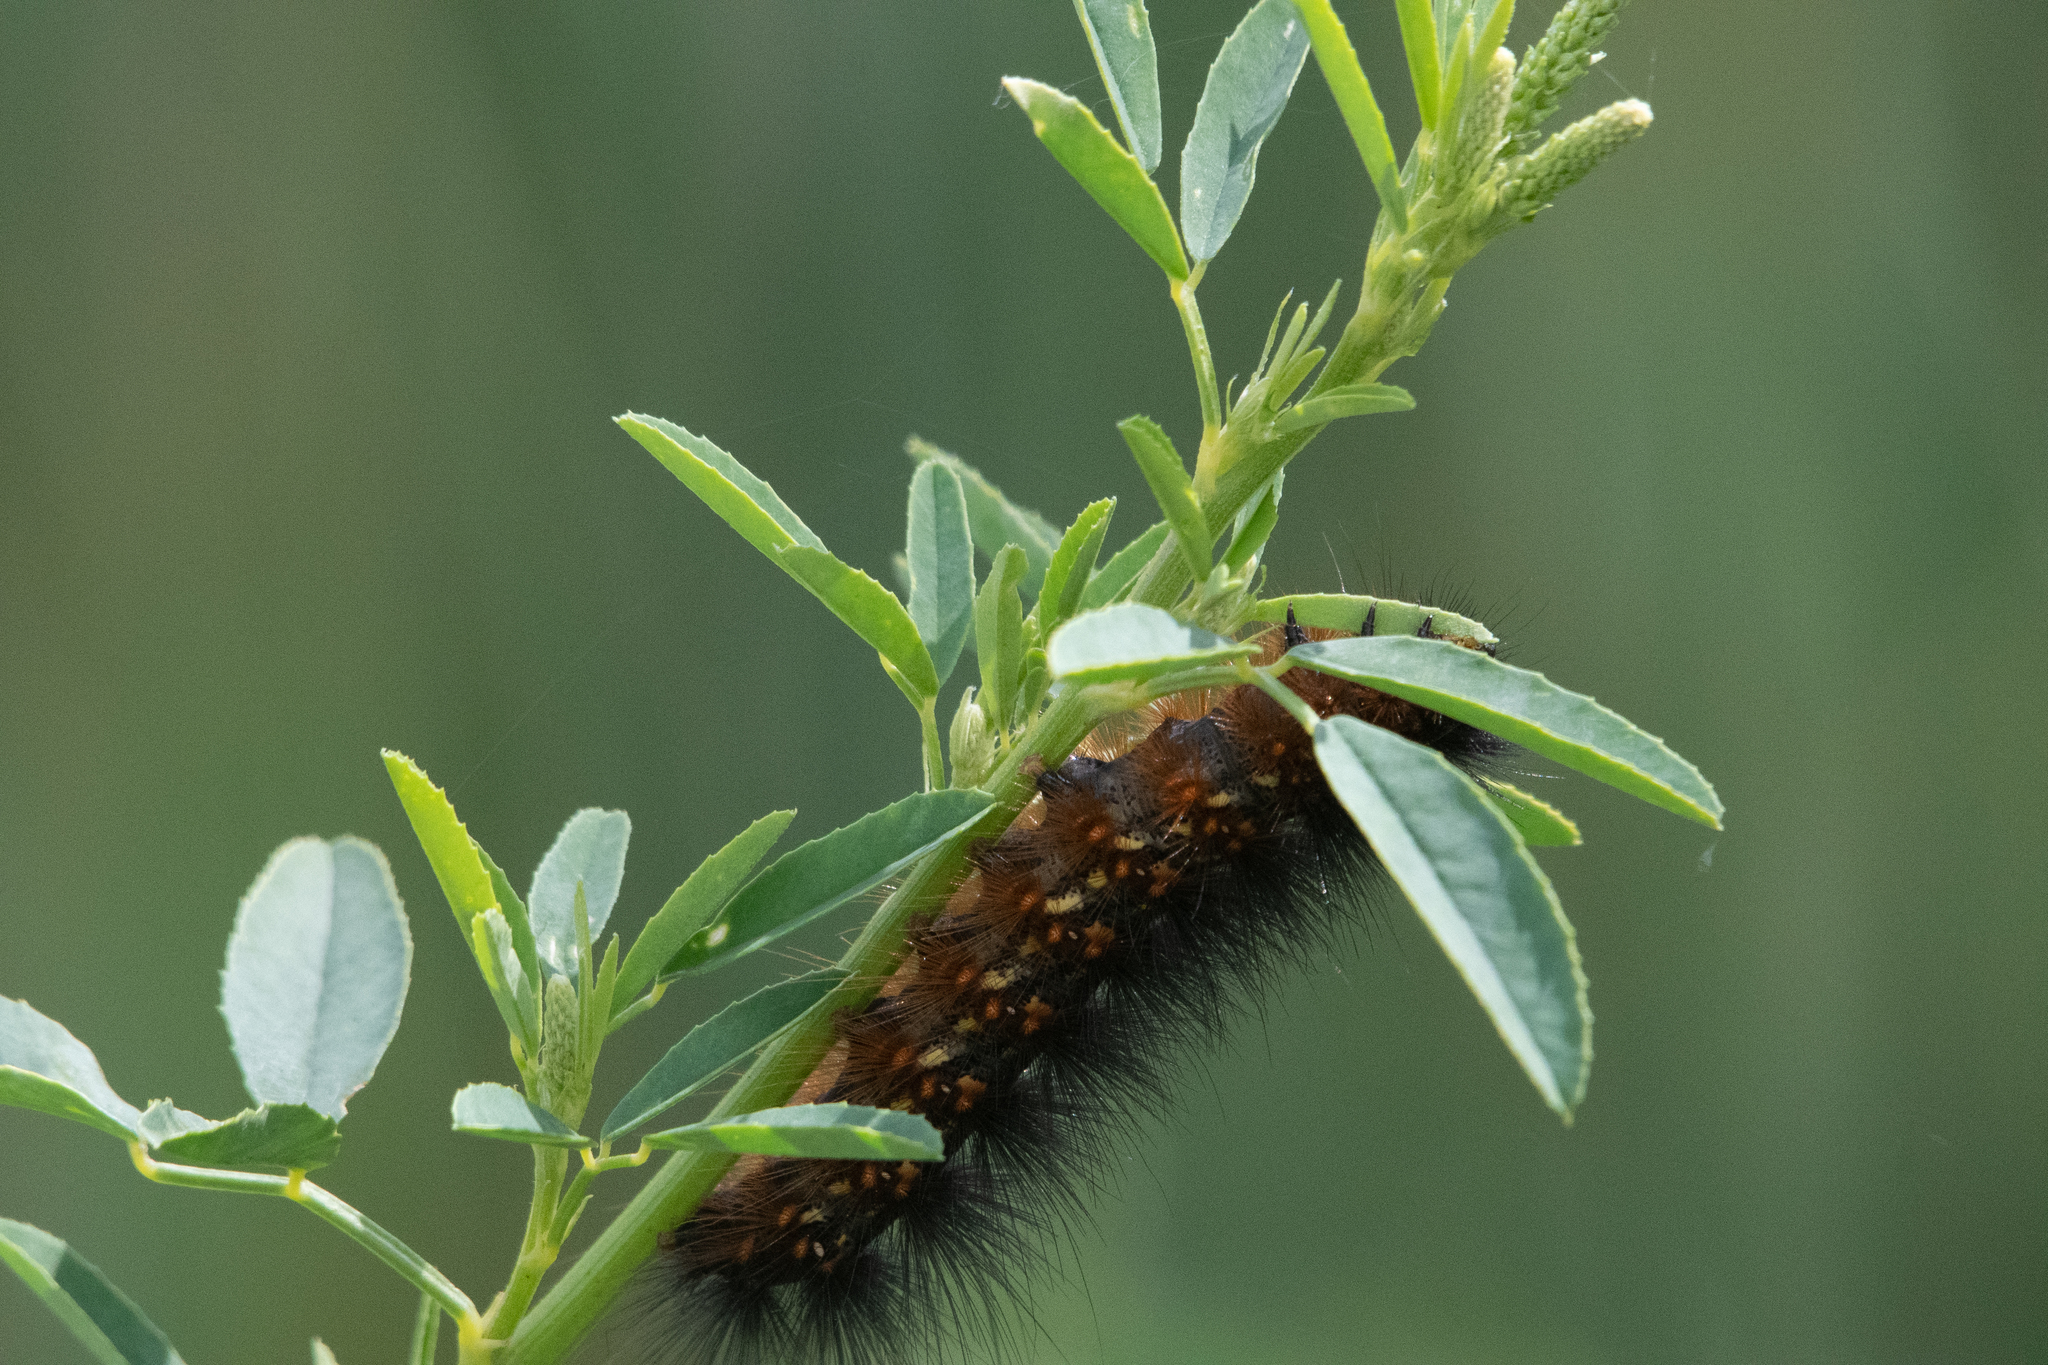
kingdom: Animalia
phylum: Arthropoda
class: Insecta
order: Lepidoptera
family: Erebidae
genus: Estigmene
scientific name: Estigmene acrea
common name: Salt marsh moth
